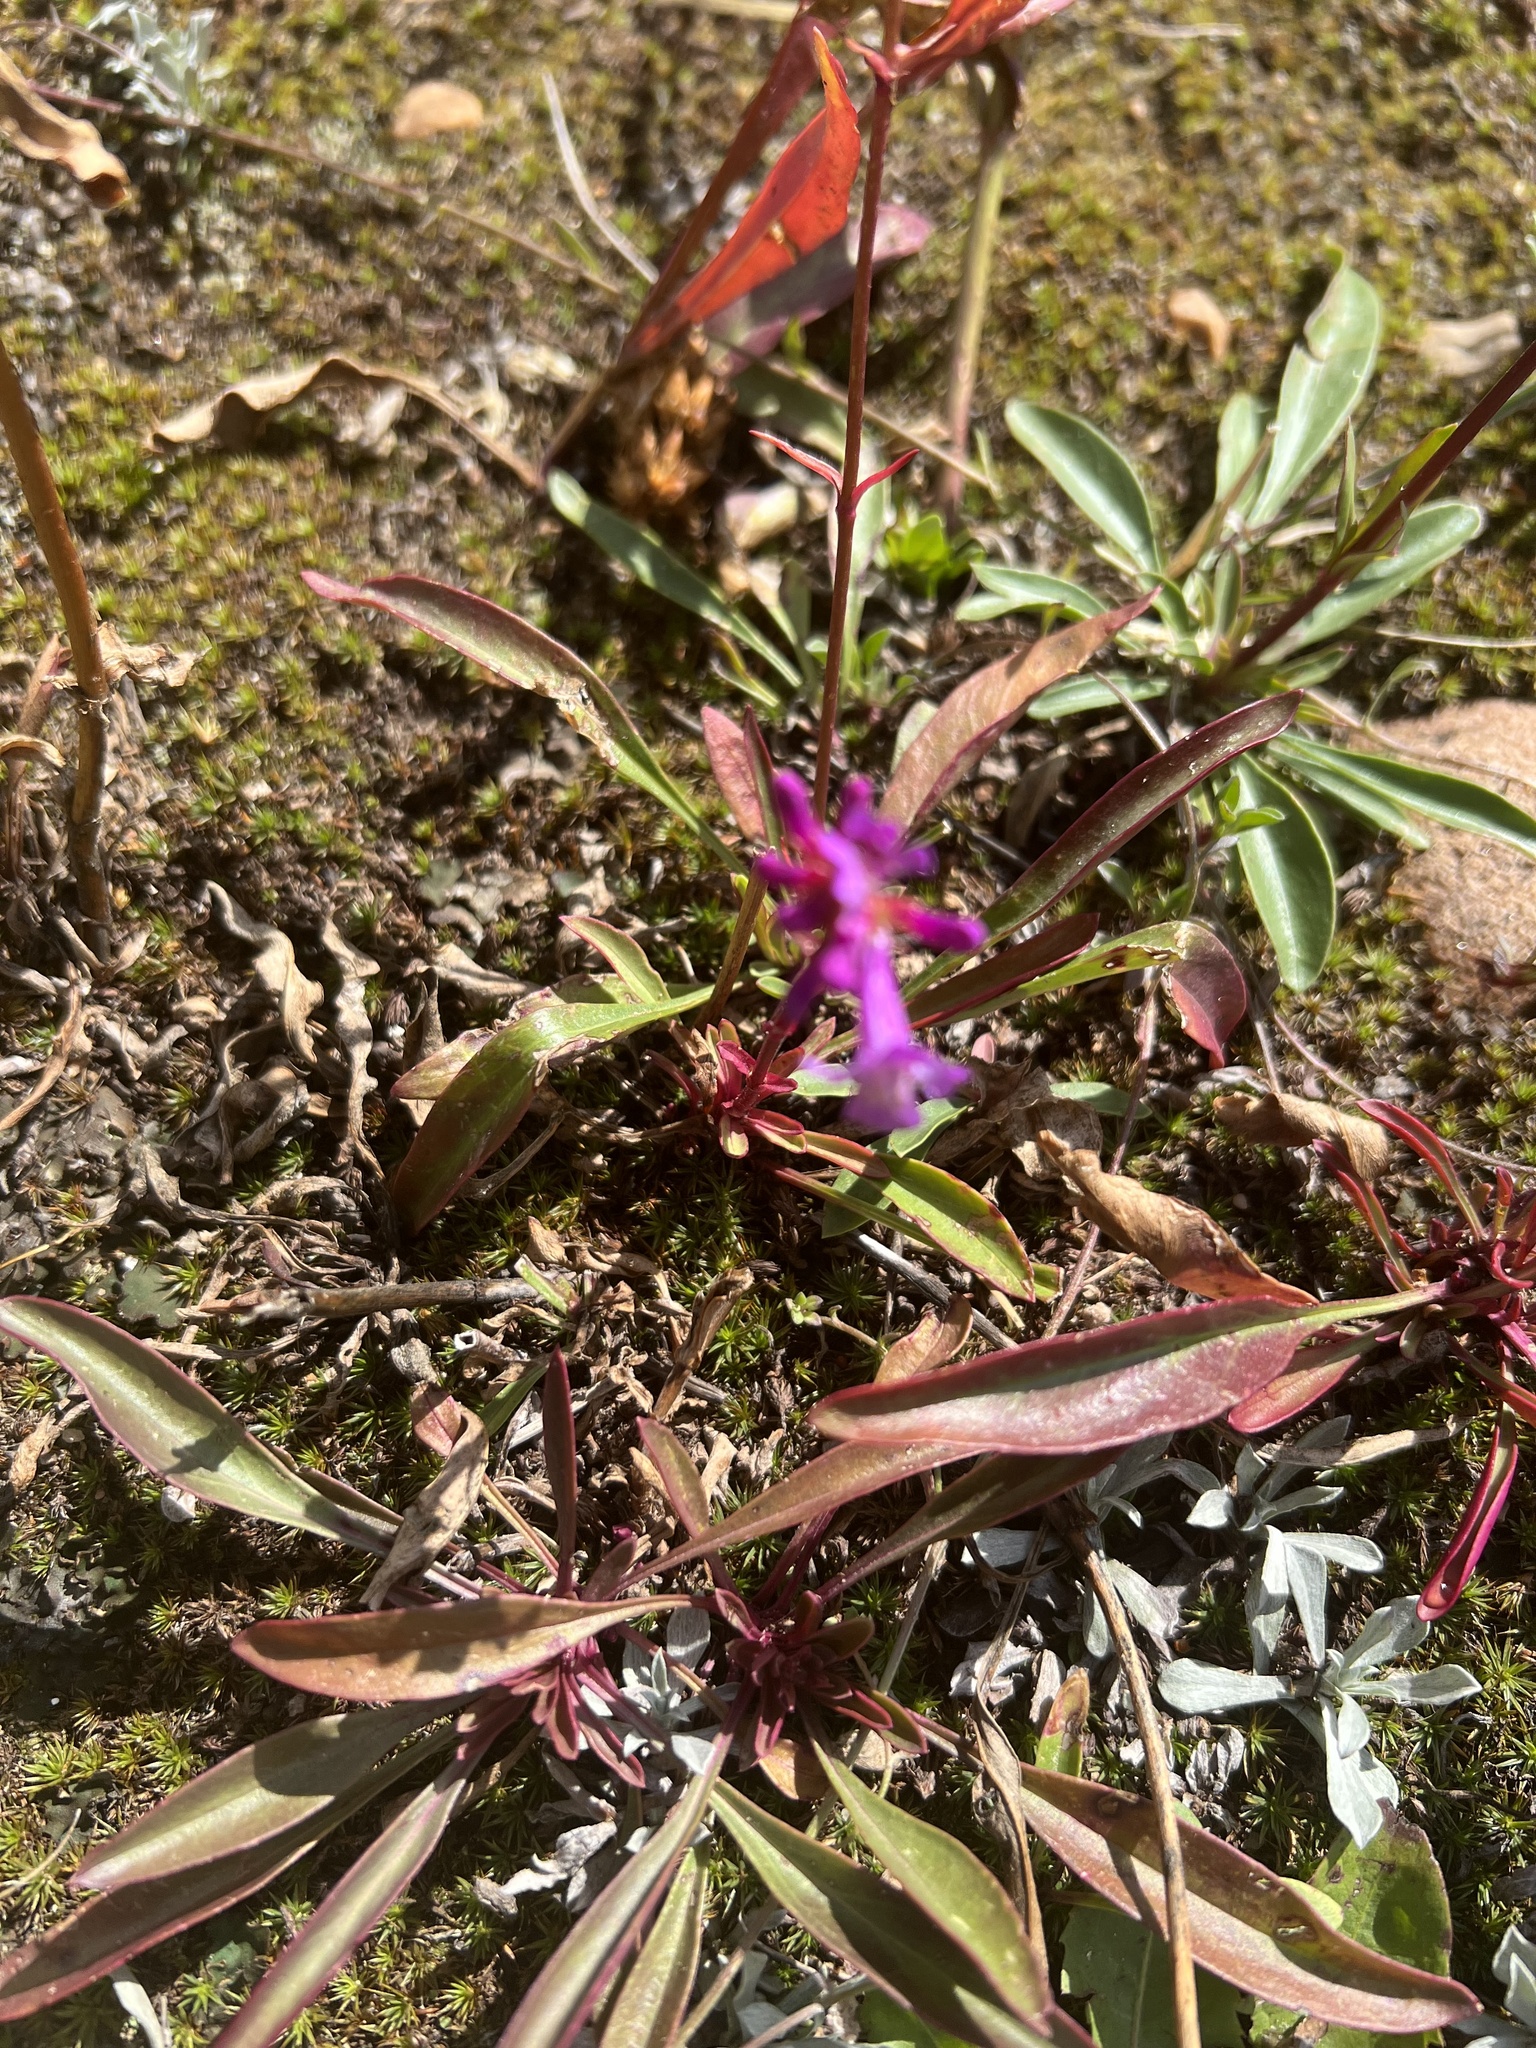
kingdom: Plantae
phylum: Tracheophyta
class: Magnoliopsida
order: Lamiales
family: Plantaginaceae
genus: Penstemon
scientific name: Penstemon procerus
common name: Small-flower penstemon
